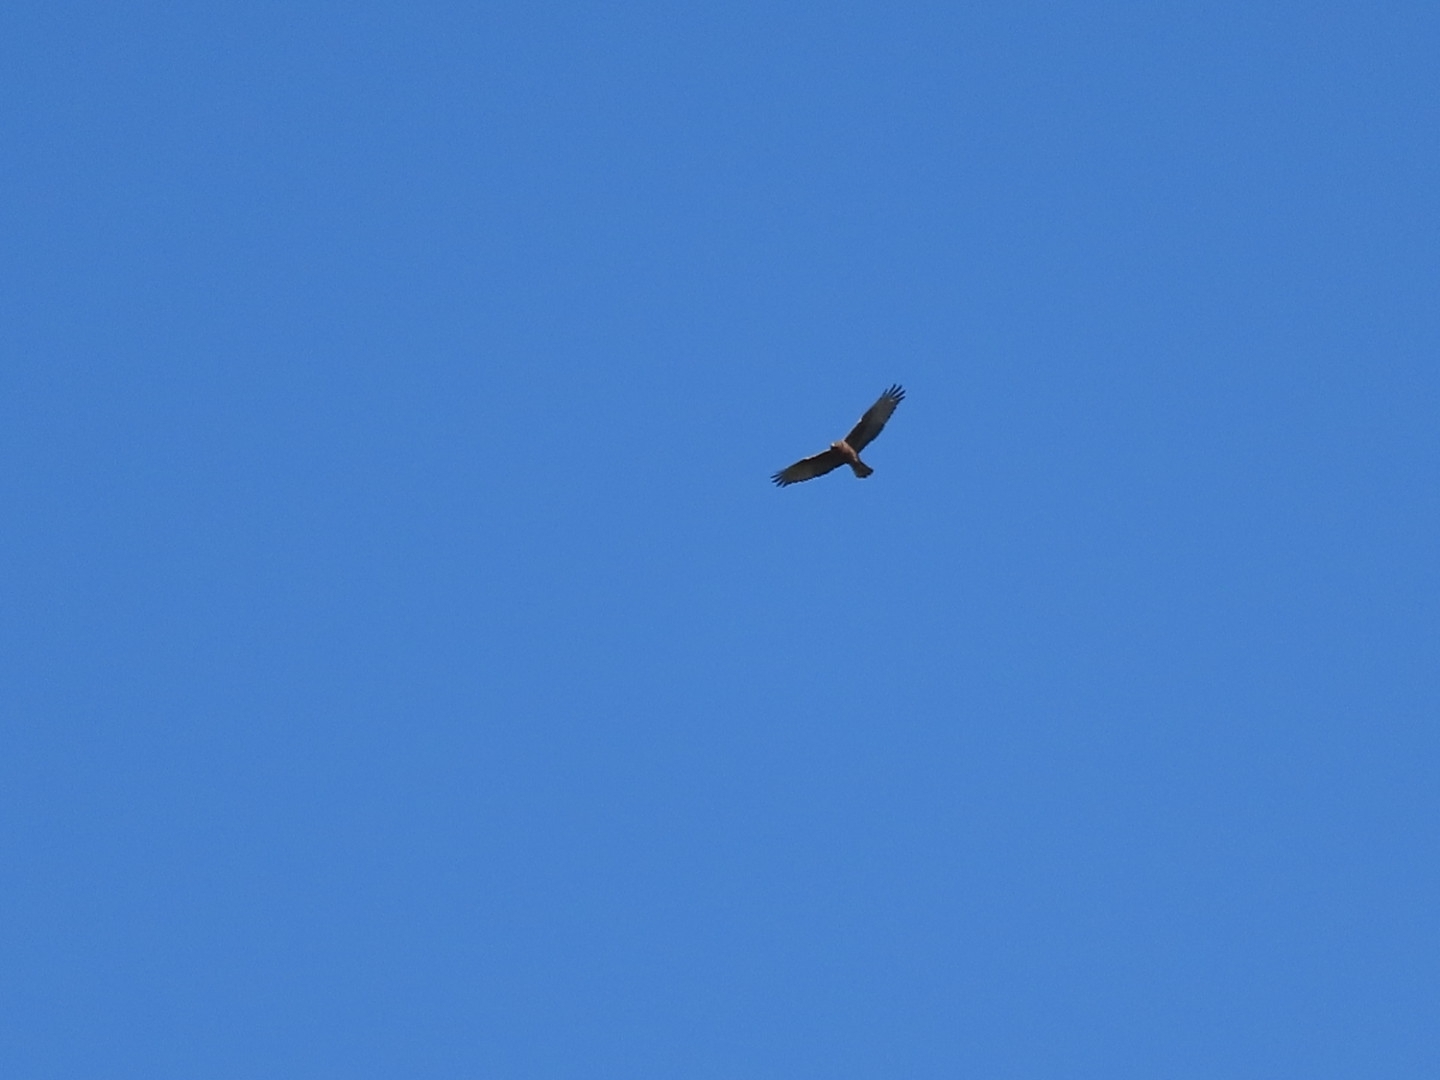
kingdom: Animalia
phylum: Chordata
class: Aves
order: Accipitriformes
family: Accipitridae
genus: Circus
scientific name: Circus approximans
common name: Swamp harrier
